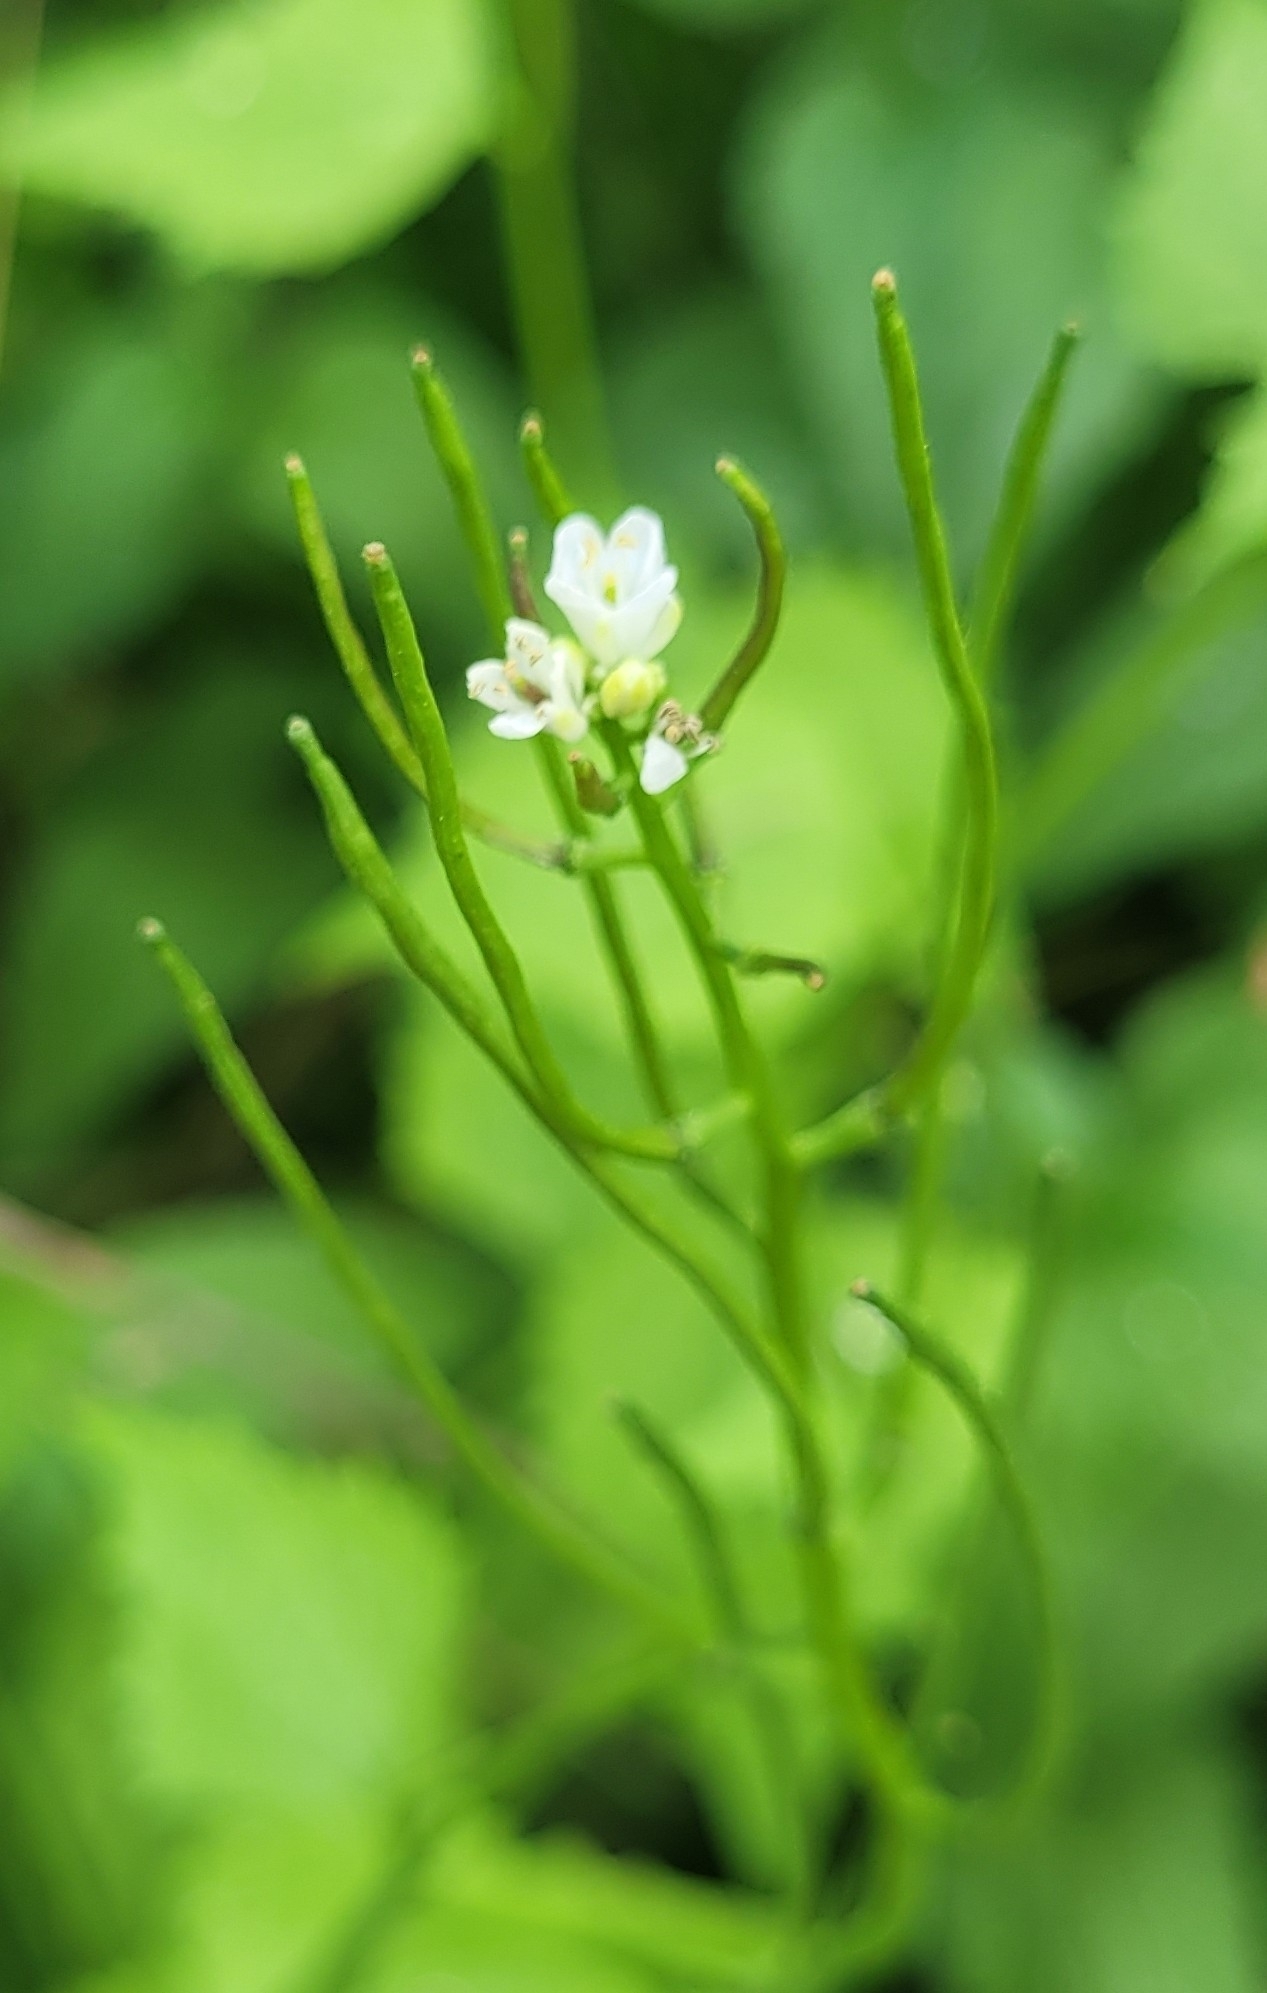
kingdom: Plantae
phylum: Tracheophyta
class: Magnoliopsida
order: Brassicales
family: Brassicaceae
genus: Alliaria
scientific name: Alliaria petiolata
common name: Garlic mustard
